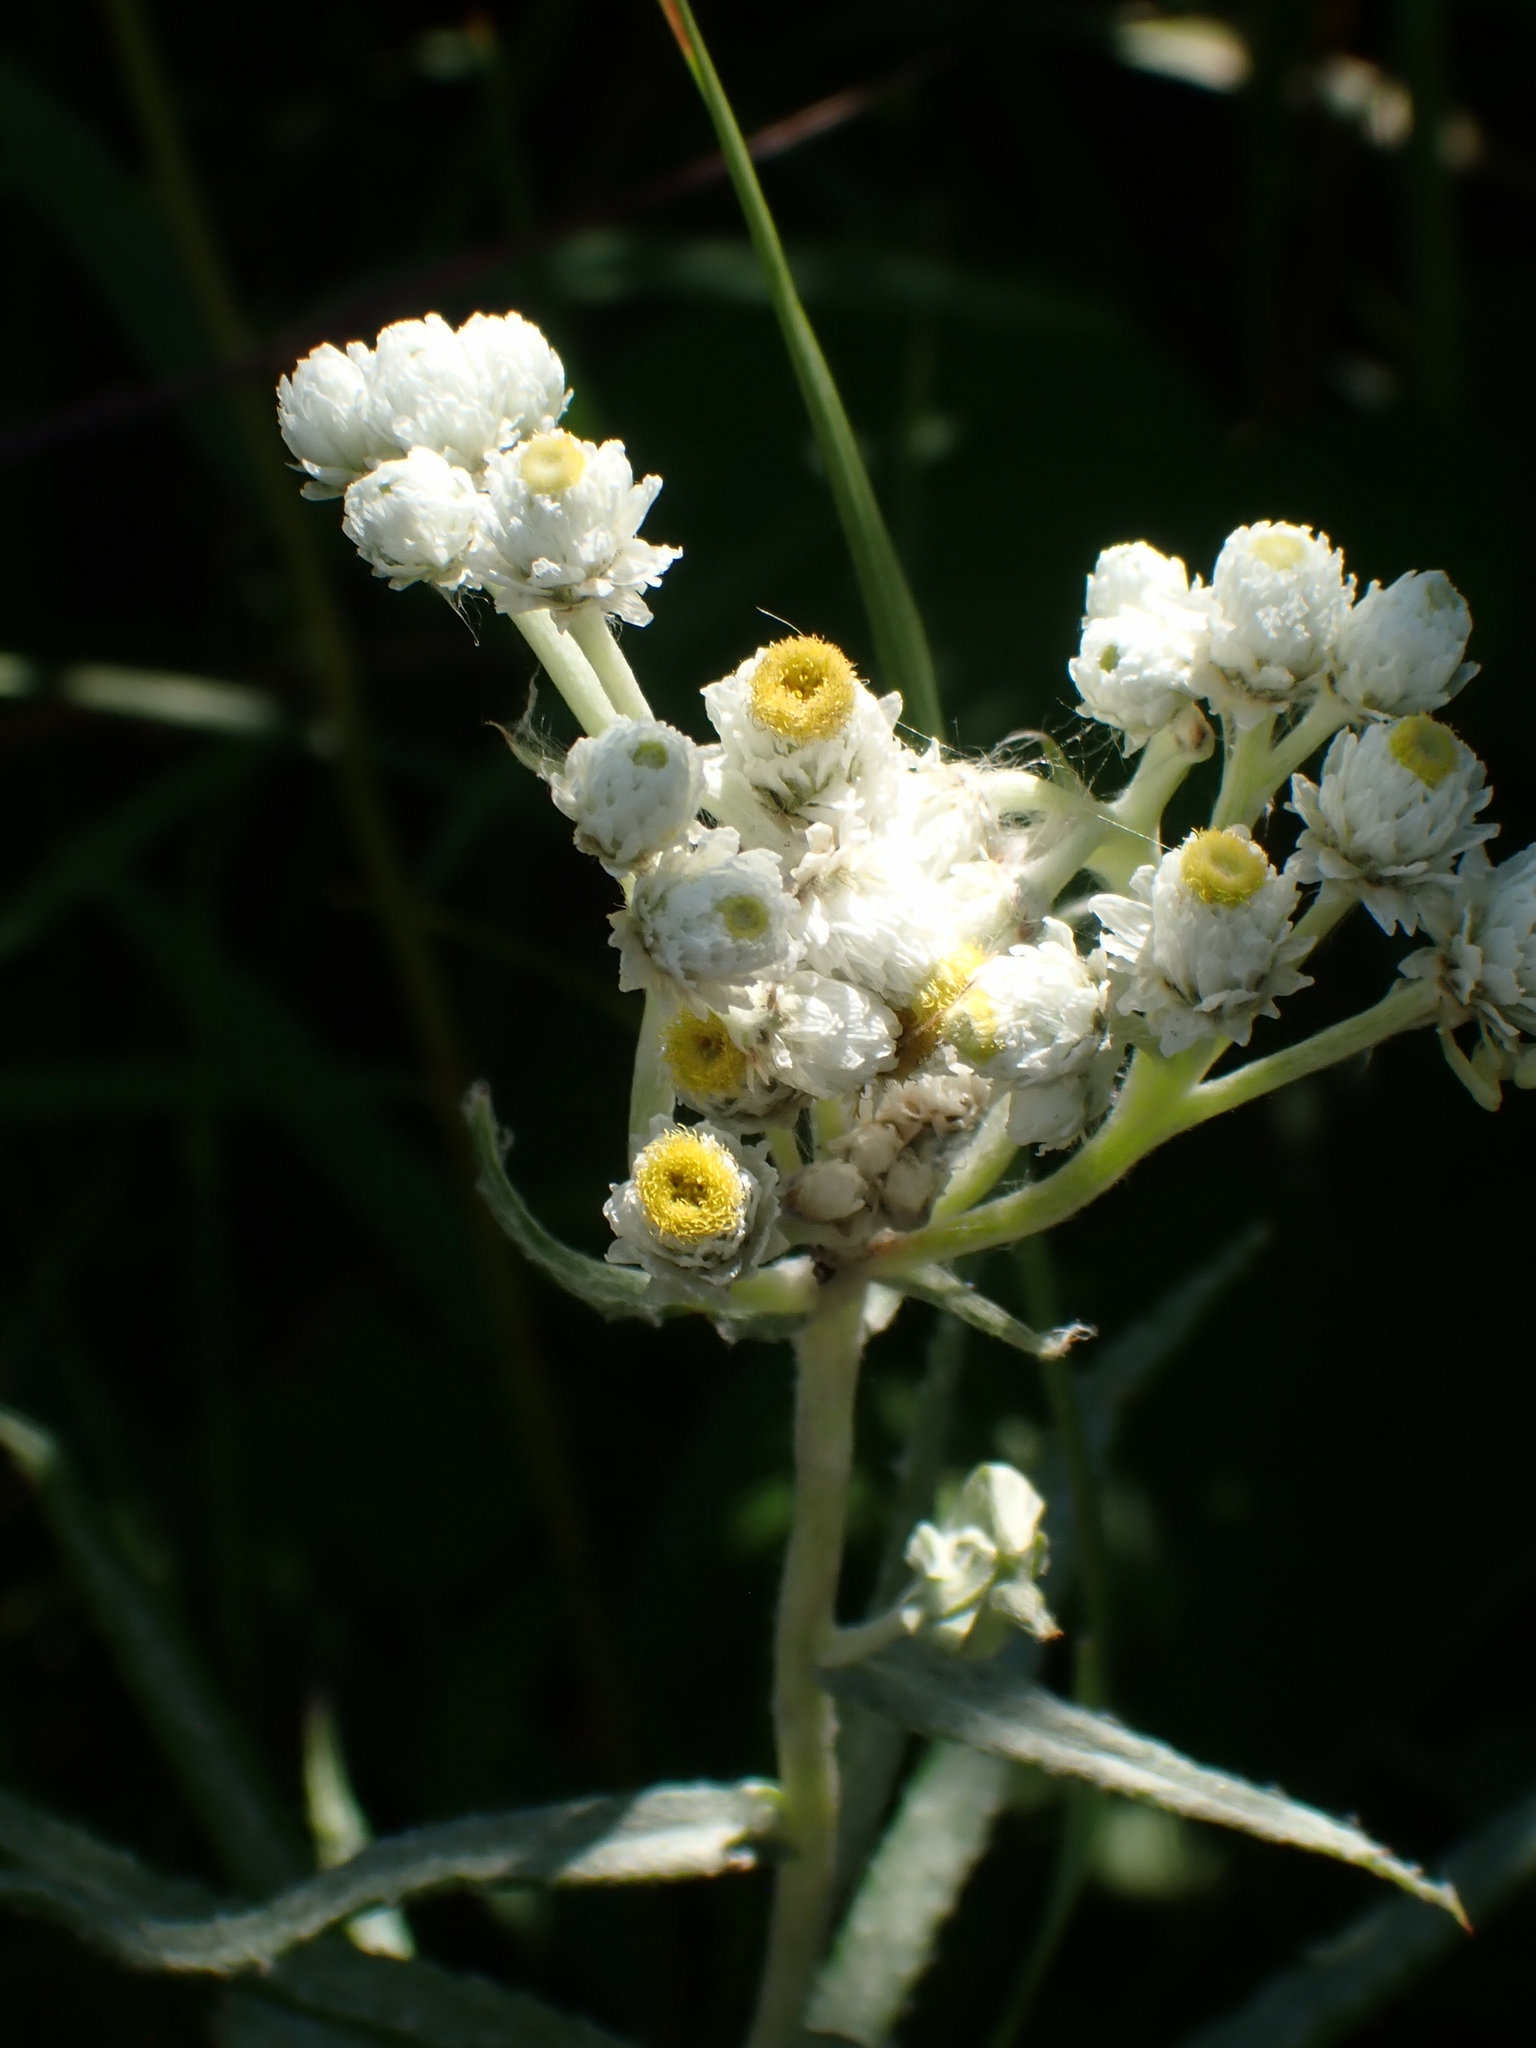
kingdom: Plantae
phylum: Tracheophyta
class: Magnoliopsida
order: Asterales
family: Asteraceae
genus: Anaphalis
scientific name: Anaphalis margaritacea
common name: Pearly everlasting
